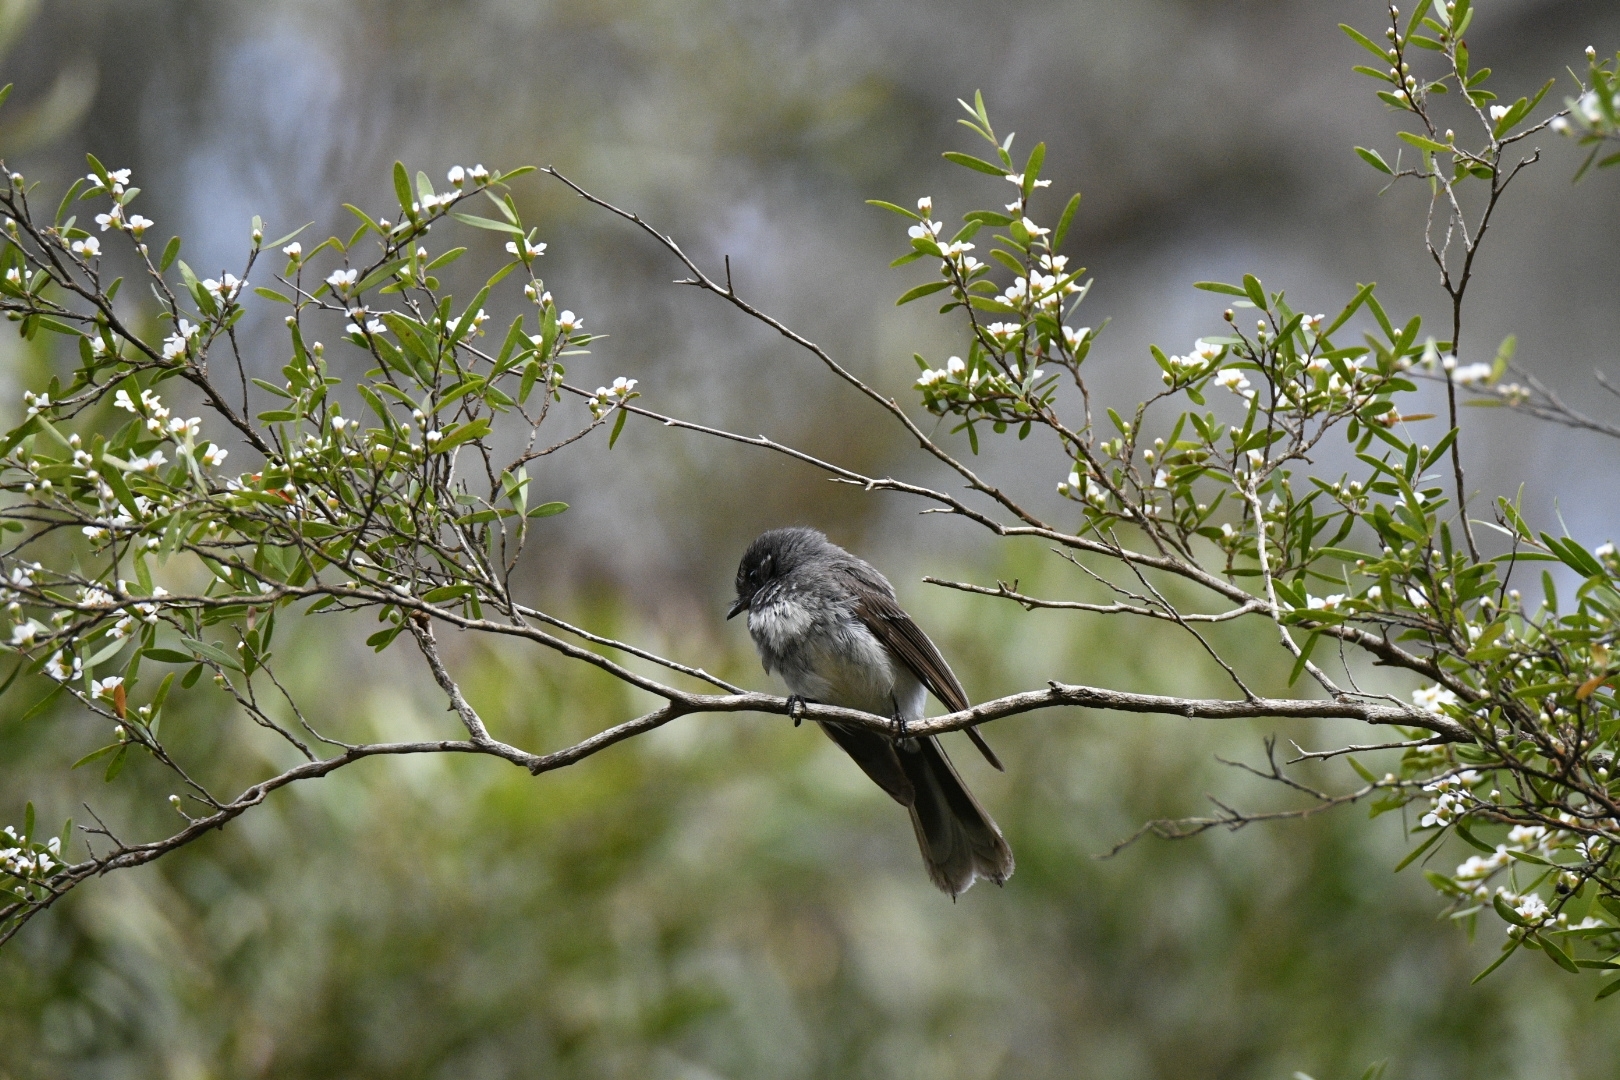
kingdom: Animalia
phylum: Chordata
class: Aves
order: Passeriformes
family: Rhipiduridae
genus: Rhipidura
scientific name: Rhipidura albiscapa
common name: Grey fantail
